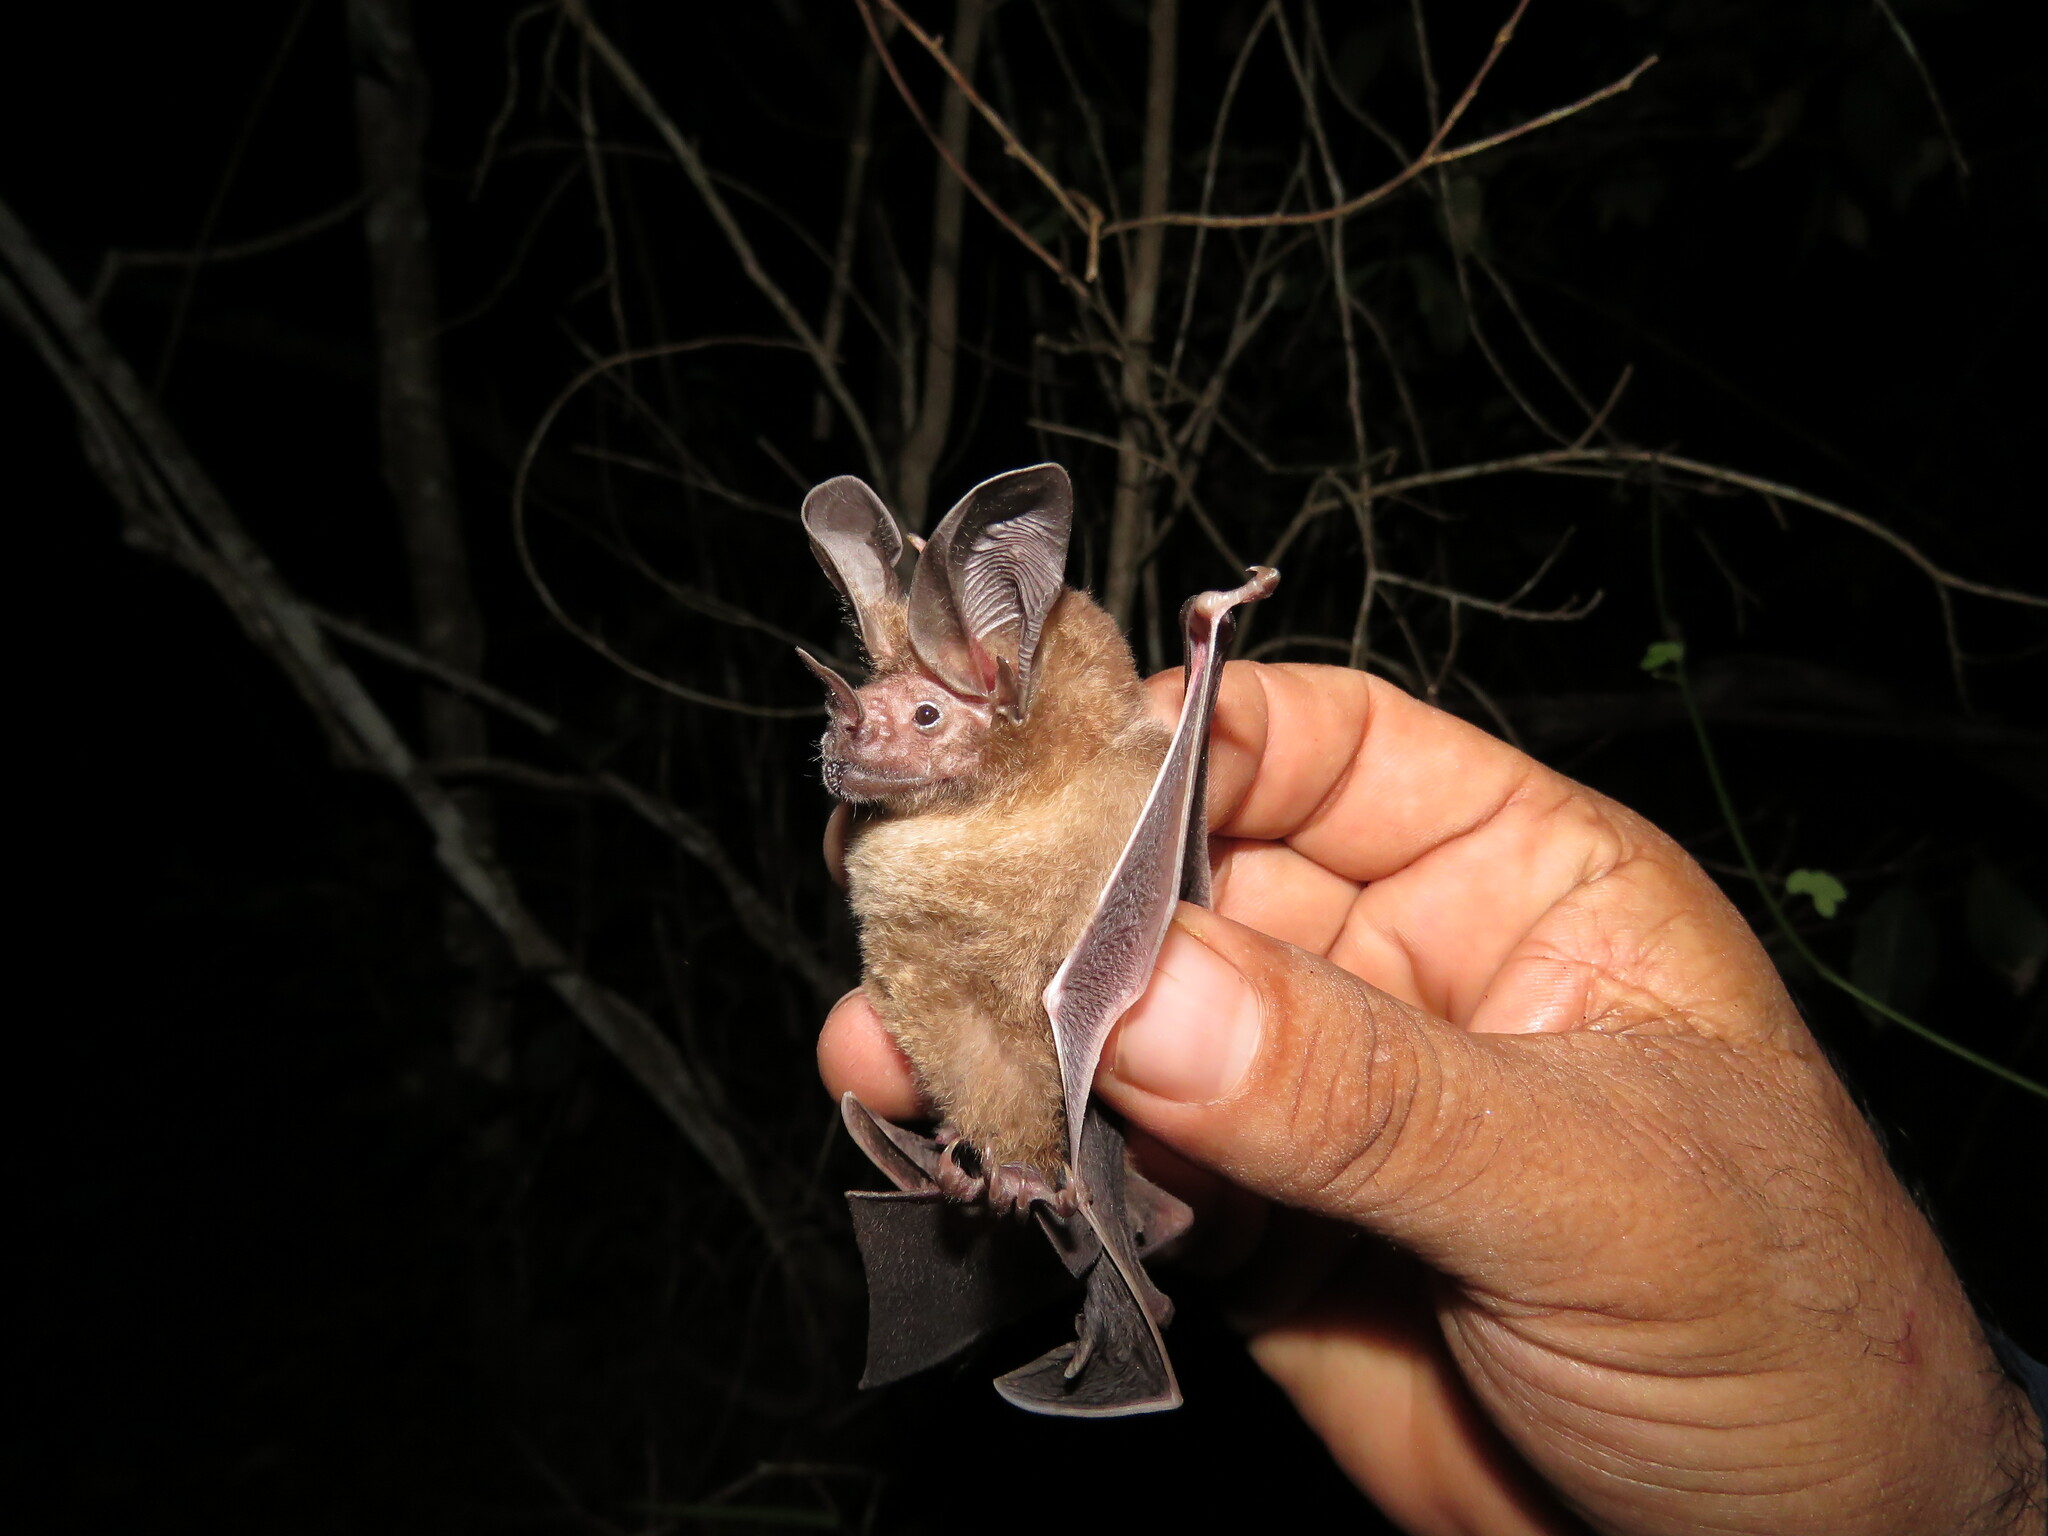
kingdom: Animalia
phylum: Chordata
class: Mammalia
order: Chiroptera
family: Phyllostomidae
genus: Lophostoma
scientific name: Lophostoma evotis
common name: Davis's round-eared bat
